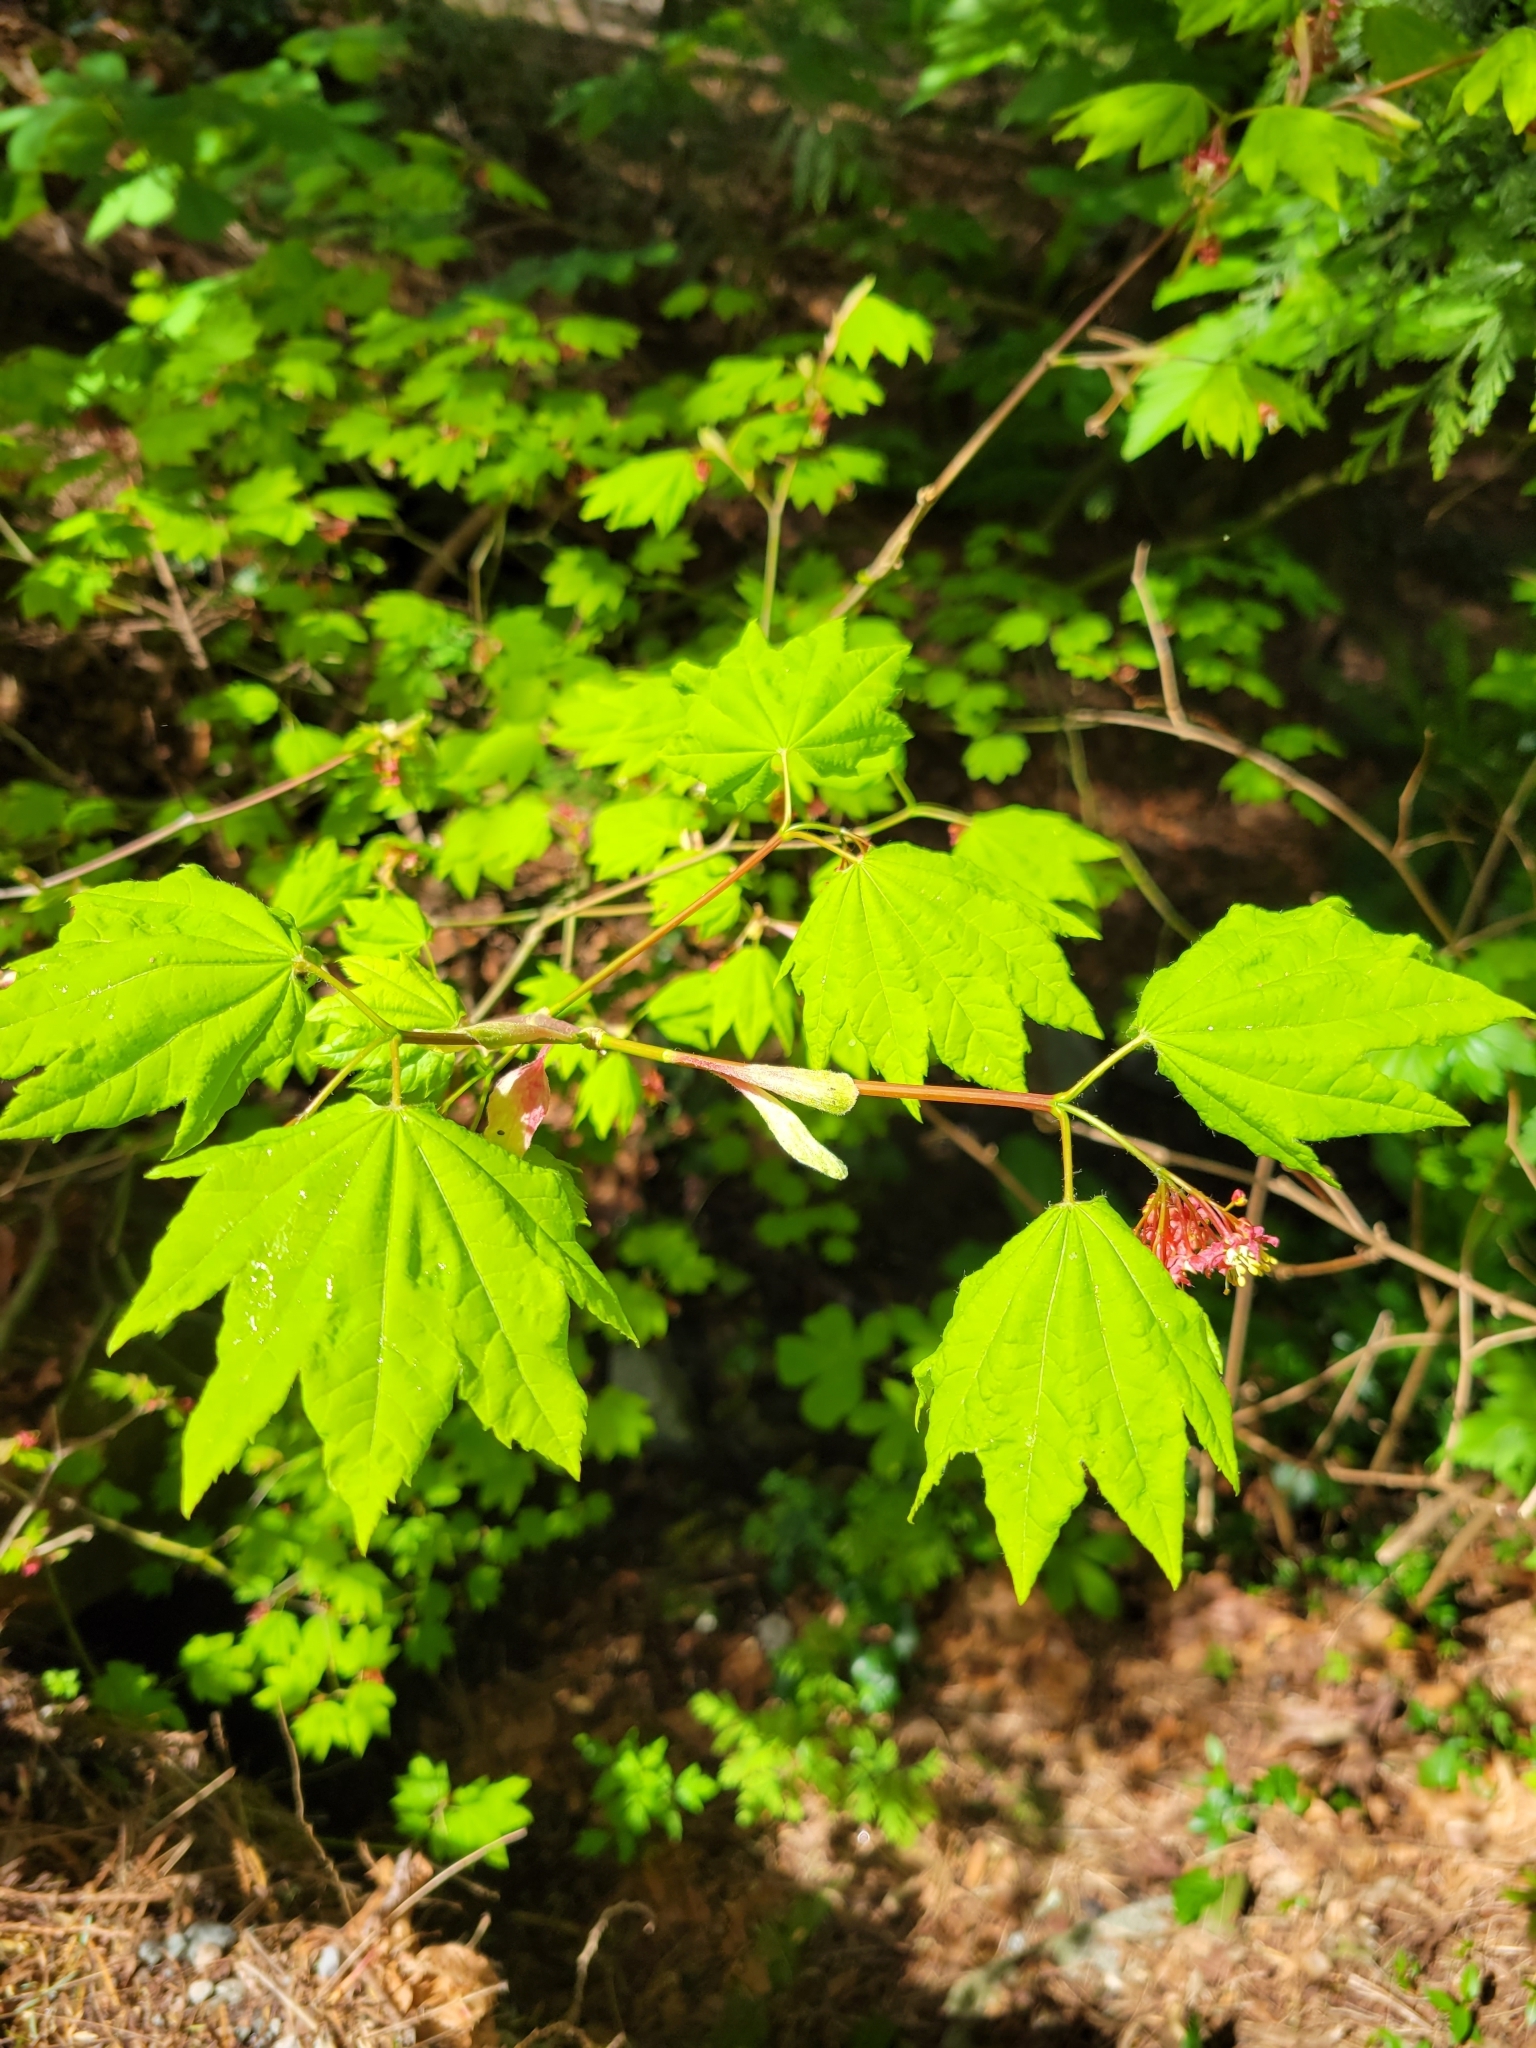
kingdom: Plantae
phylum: Tracheophyta
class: Magnoliopsida
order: Sapindales
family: Sapindaceae
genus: Acer
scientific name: Acer circinatum
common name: Vine maple
